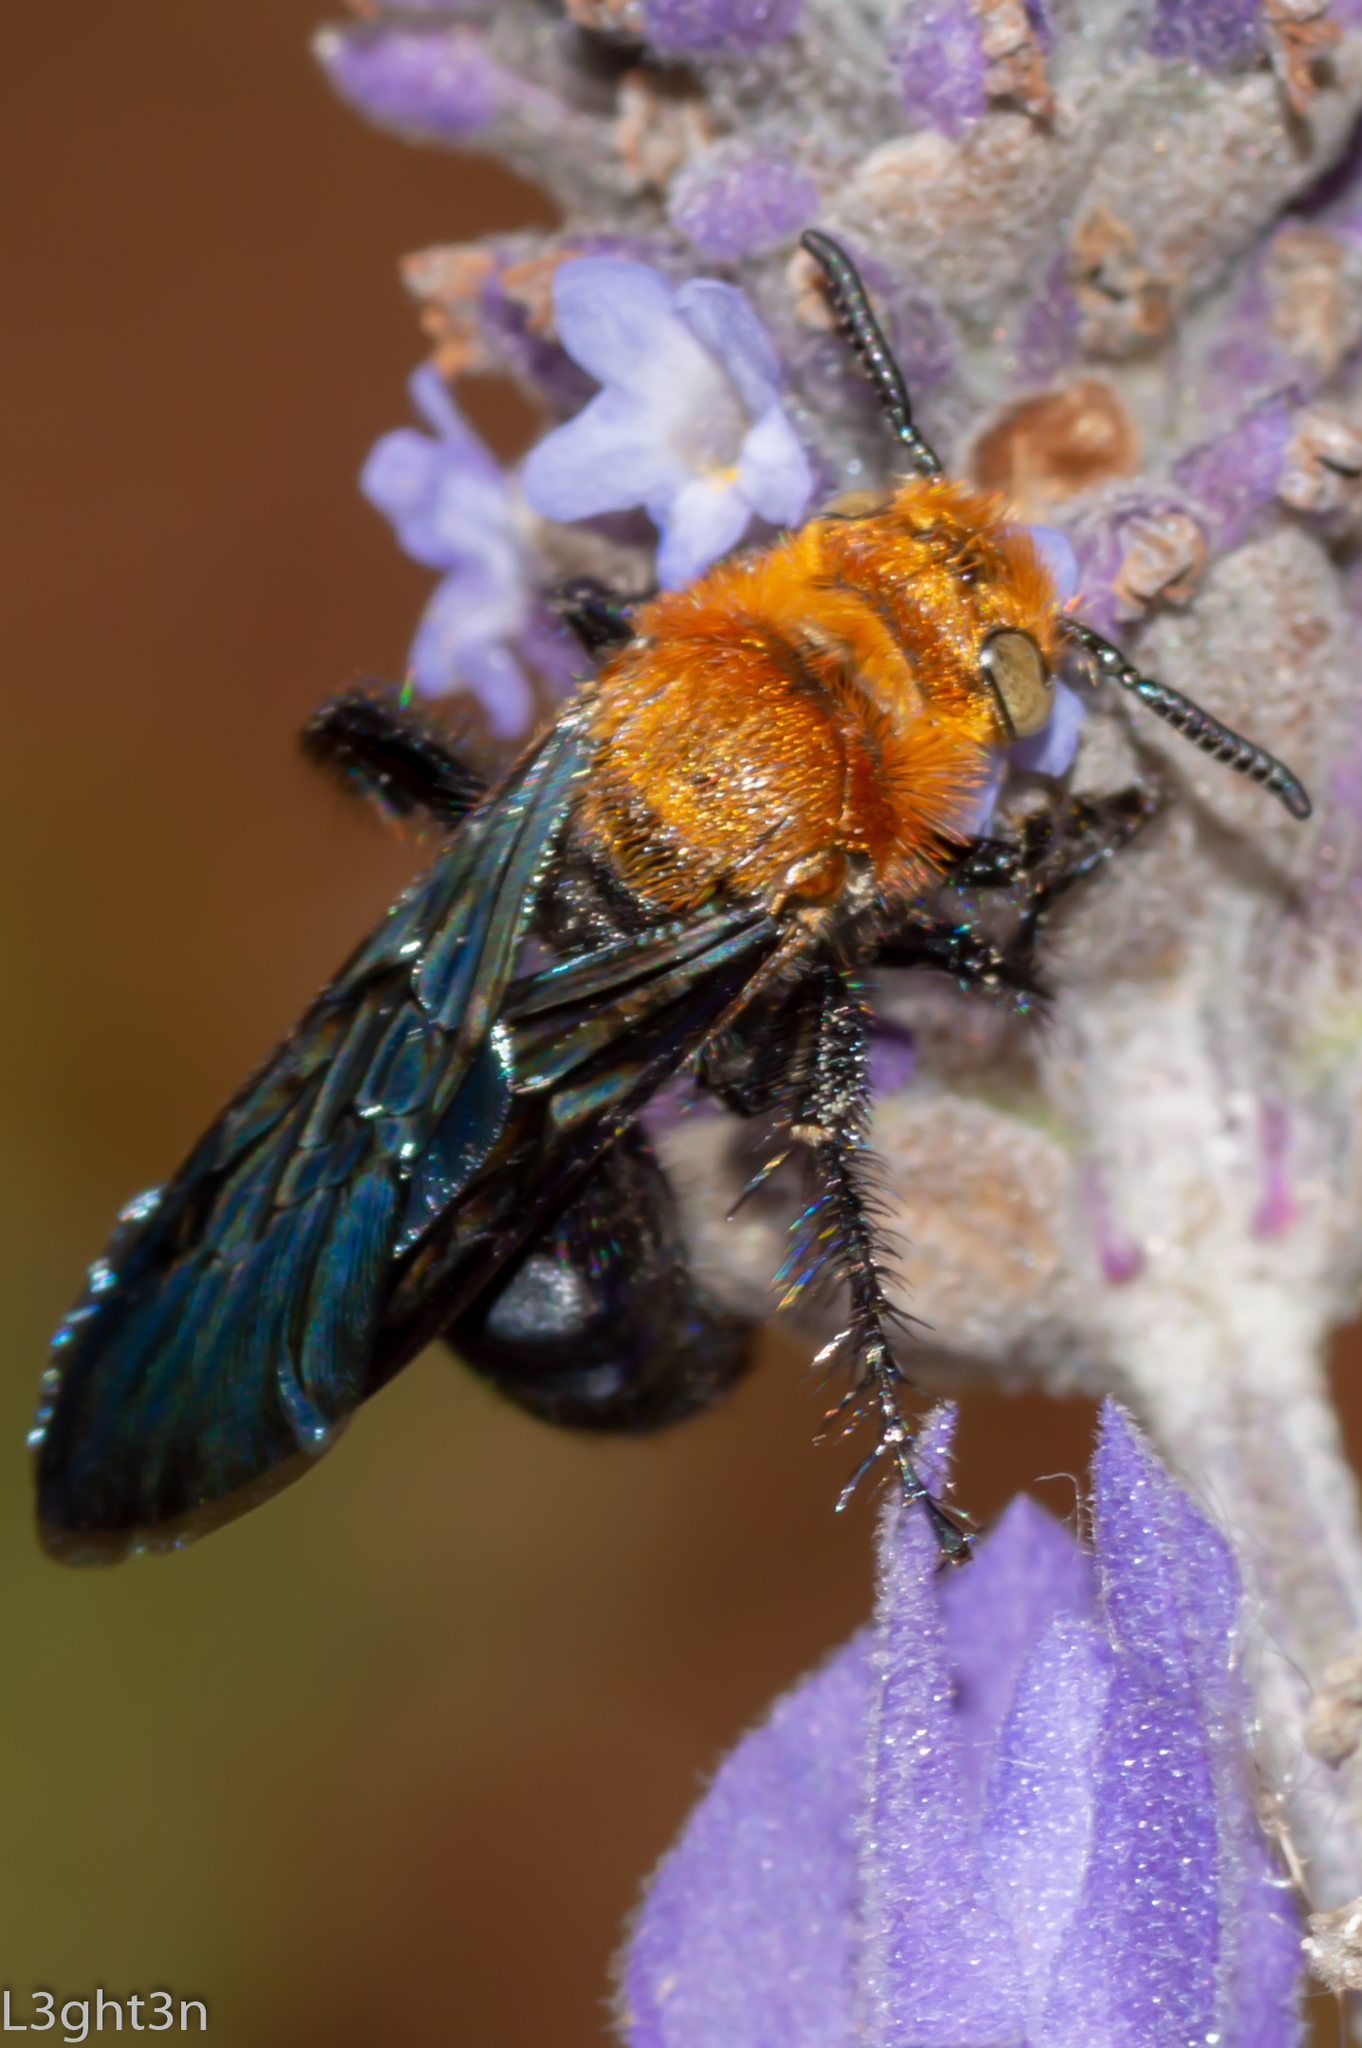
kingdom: Animalia
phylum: Arthropoda
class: Insecta
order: Hymenoptera
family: Scoliidae
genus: Campsomeriella
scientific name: Campsomeriella caelebs
